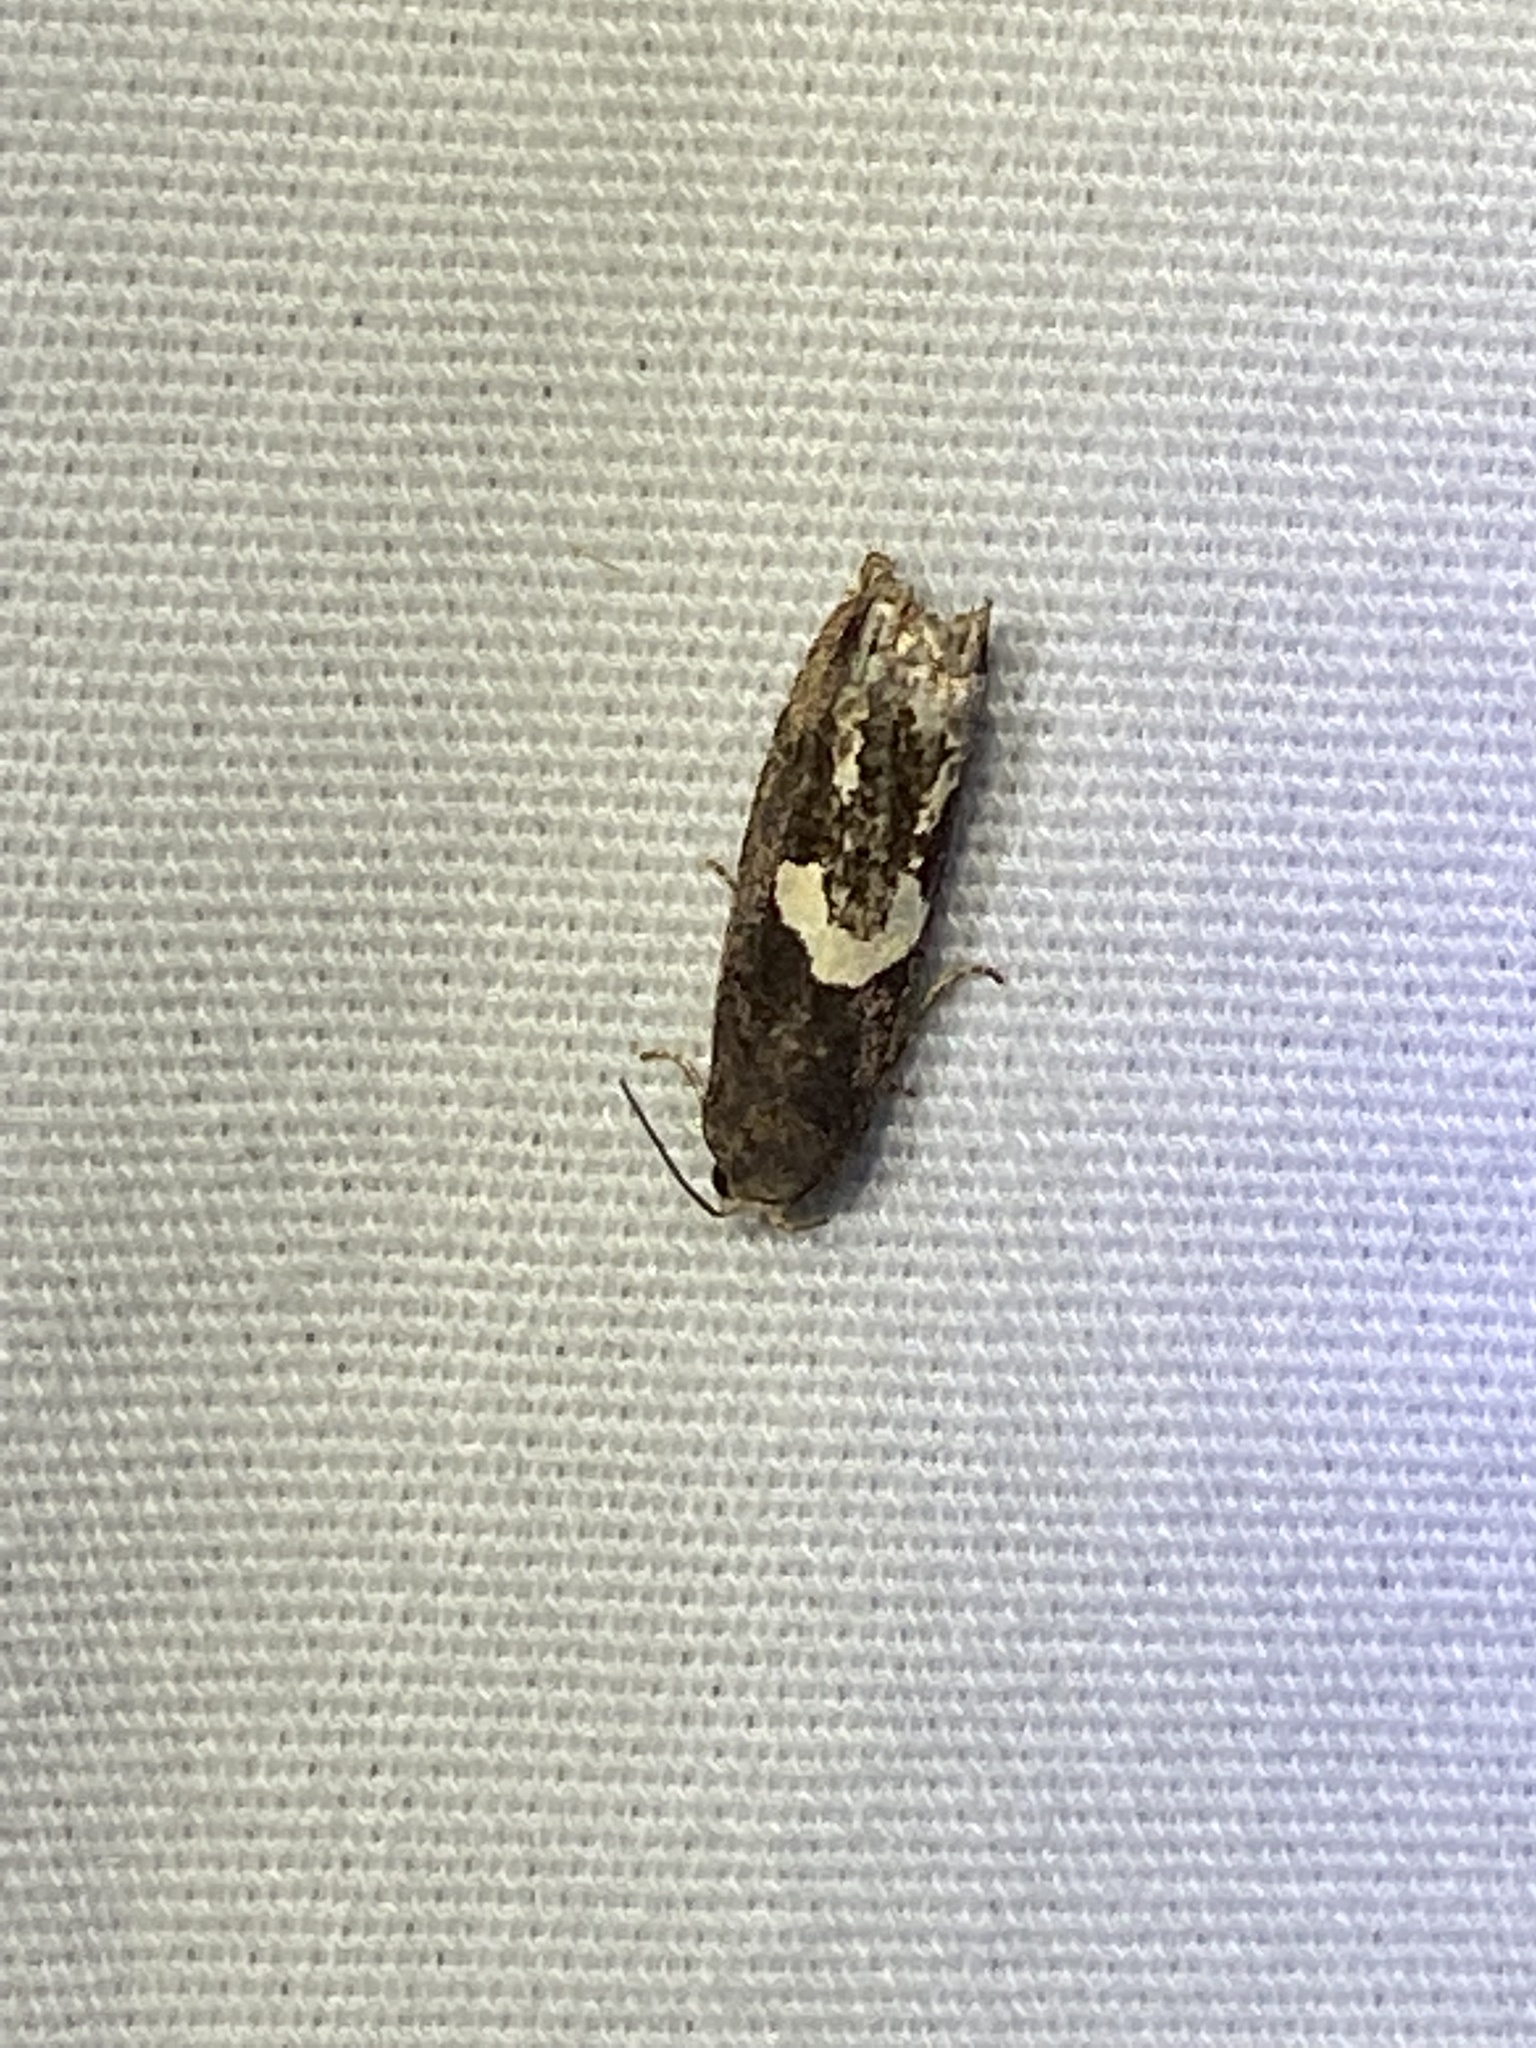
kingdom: Animalia
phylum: Arthropoda
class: Insecta
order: Lepidoptera
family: Tortricidae
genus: Epiblema
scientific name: Epiblema otiosana
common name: Bidens borer moth
